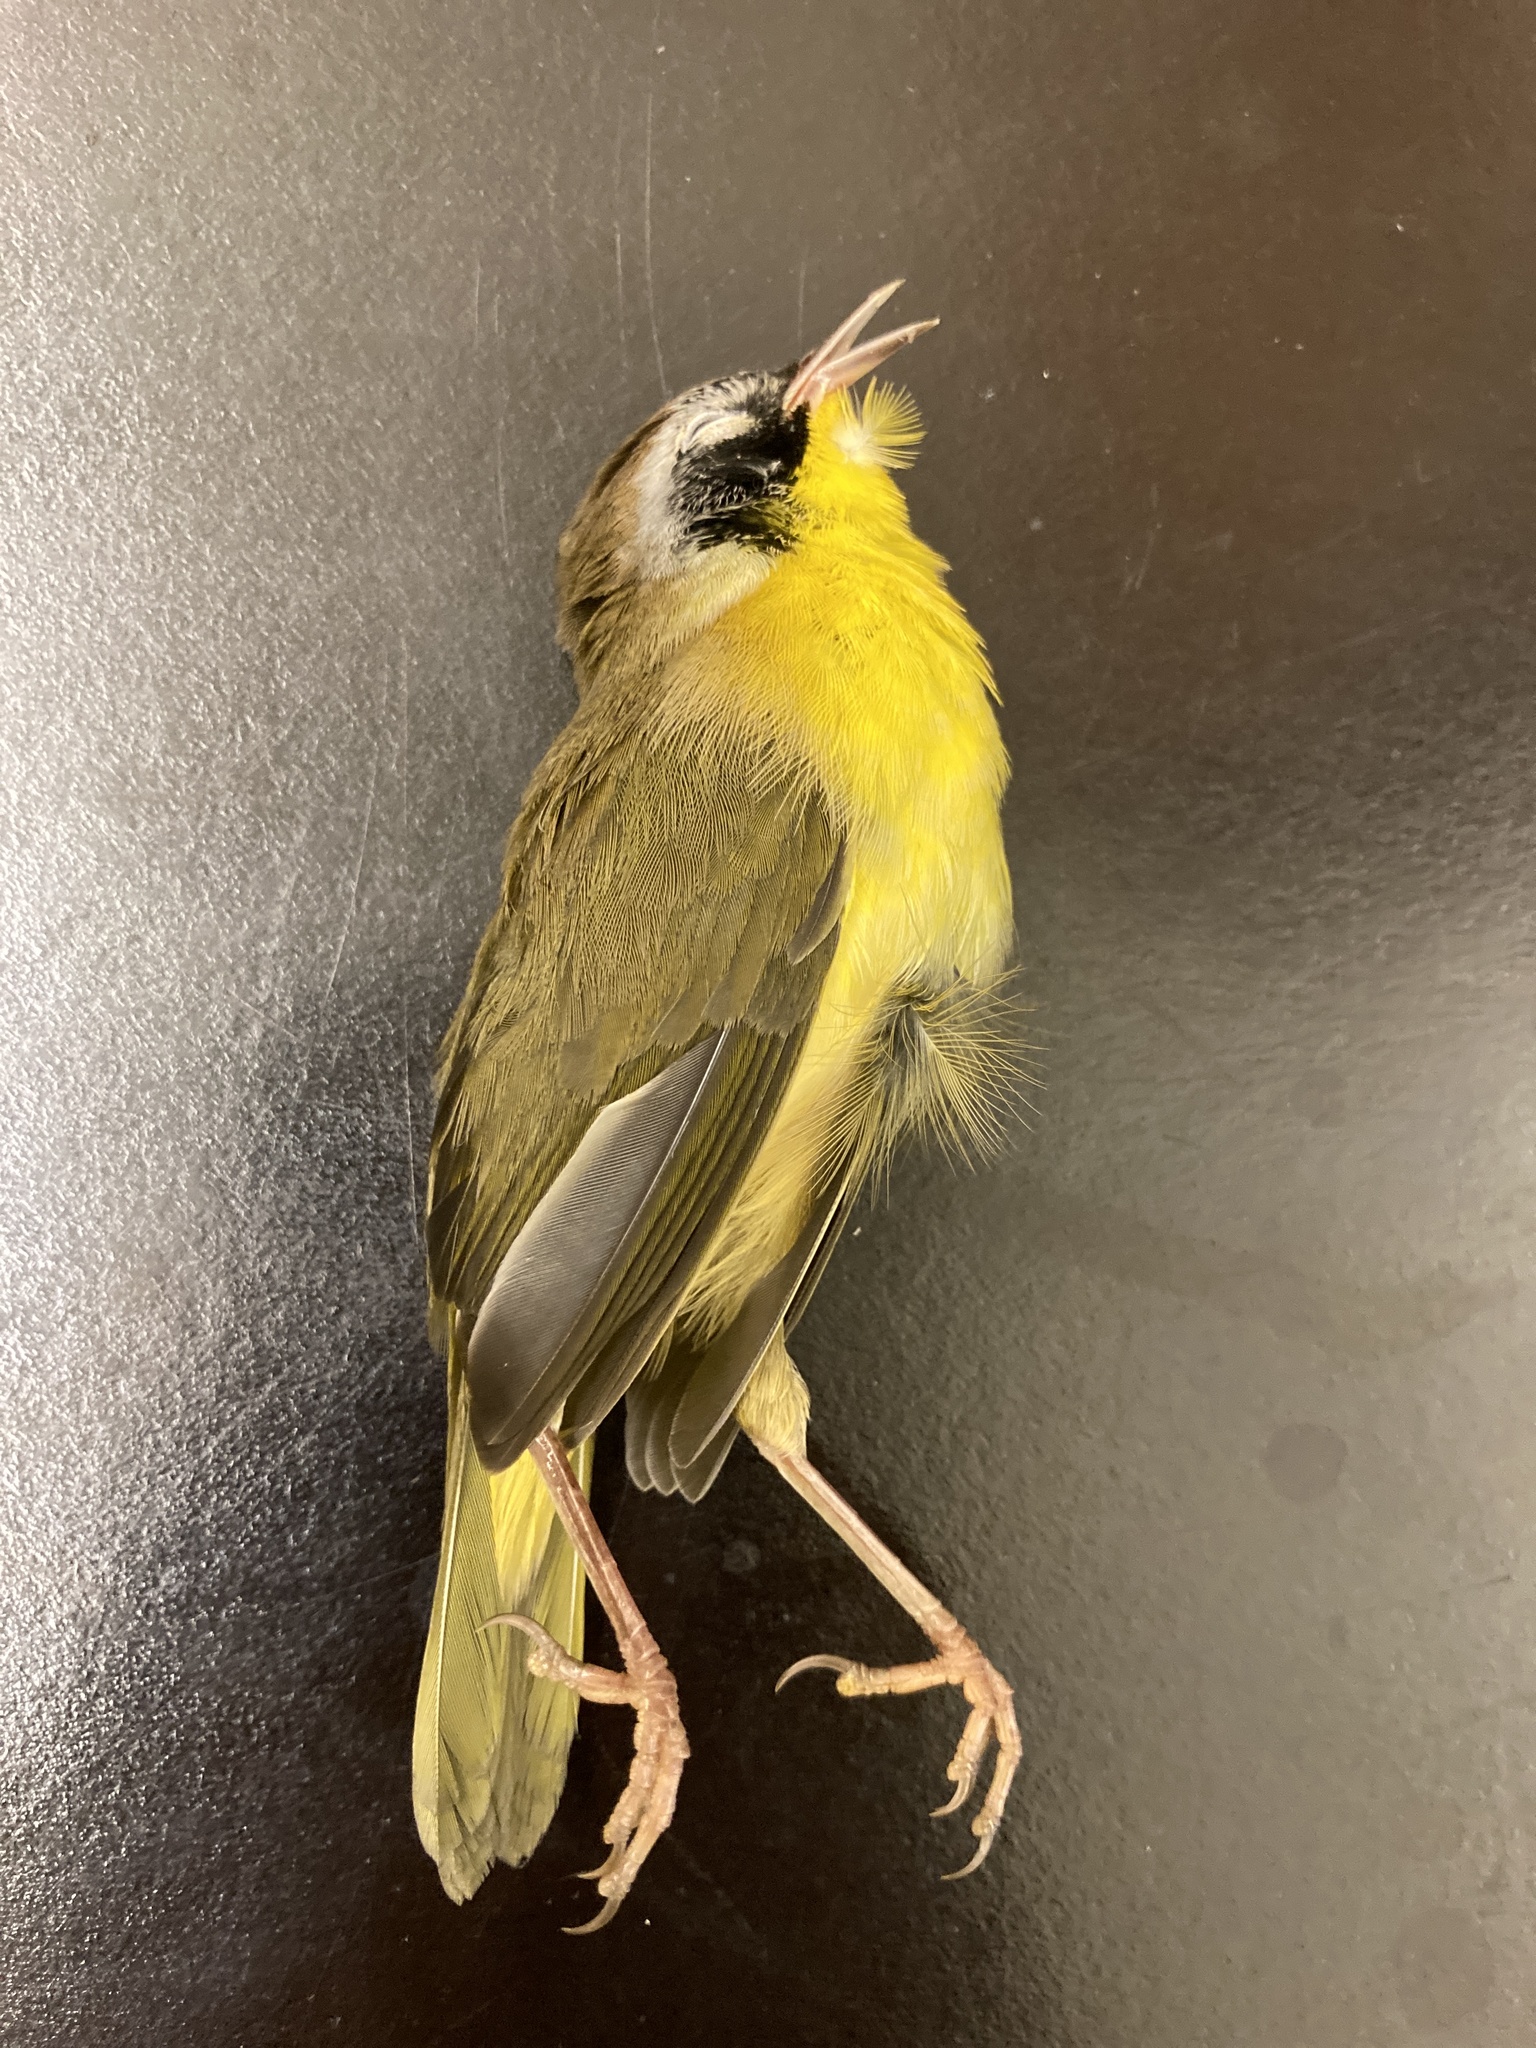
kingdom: Animalia
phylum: Chordata
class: Aves
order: Passeriformes
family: Parulidae
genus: Geothlypis
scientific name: Geothlypis trichas
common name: Common yellowthroat
